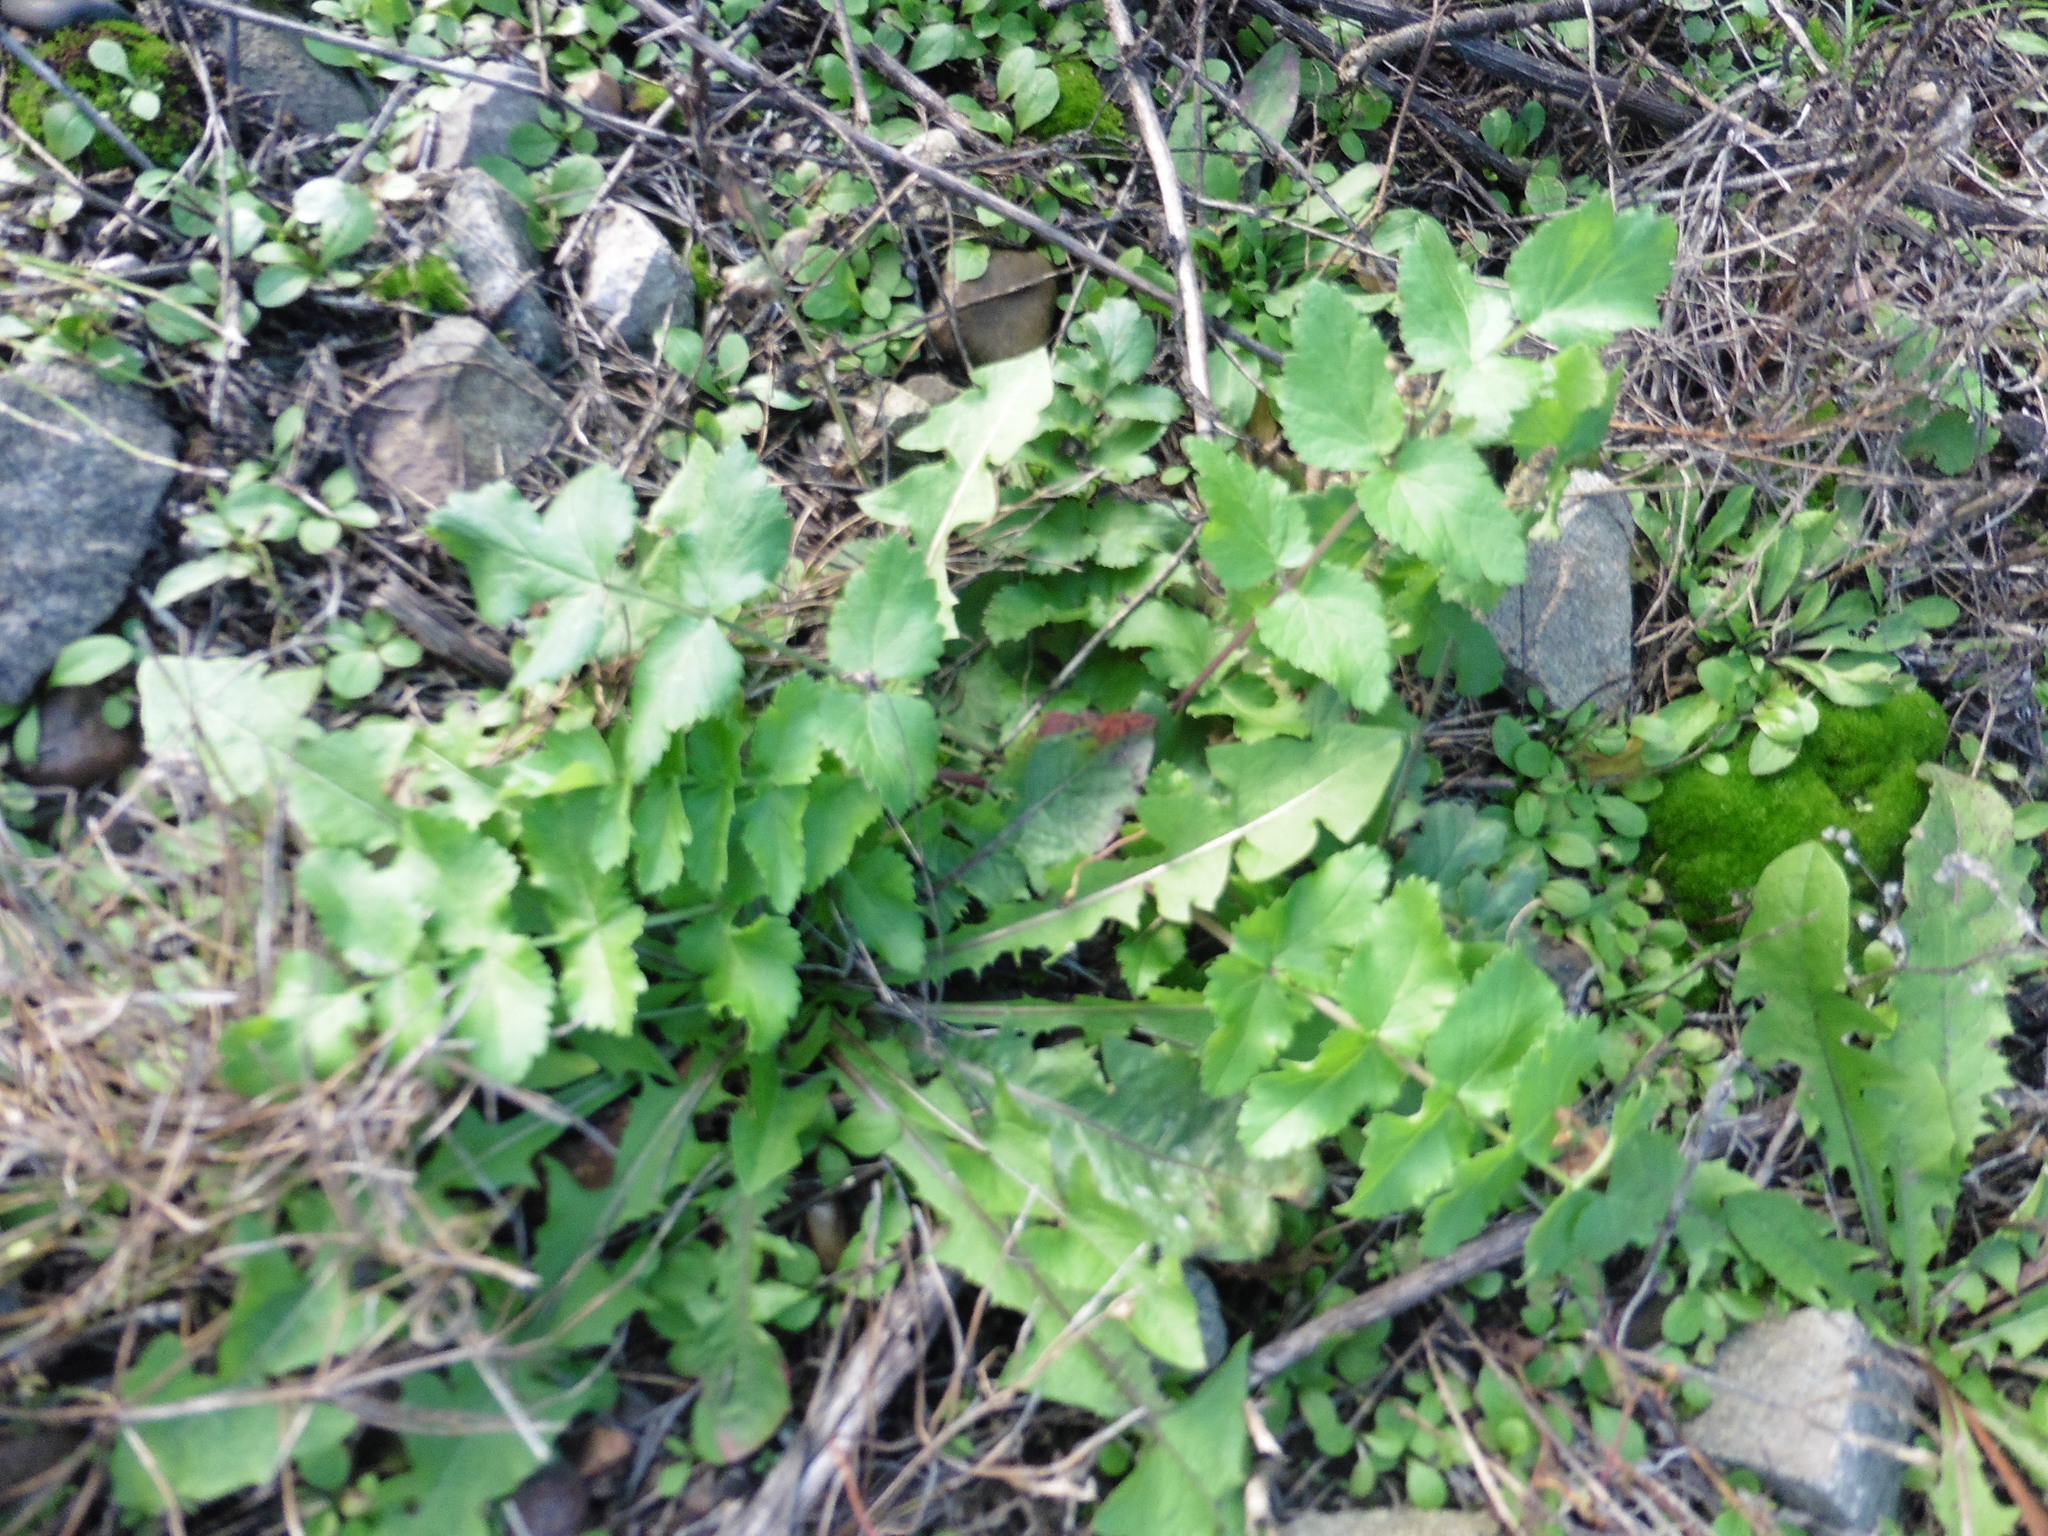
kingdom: Plantae
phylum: Tracheophyta
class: Magnoliopsida
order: Apiales
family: Apiaceae
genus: Pimpinella
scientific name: Pimpinella saxifraga
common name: Burnet-saxifrage
